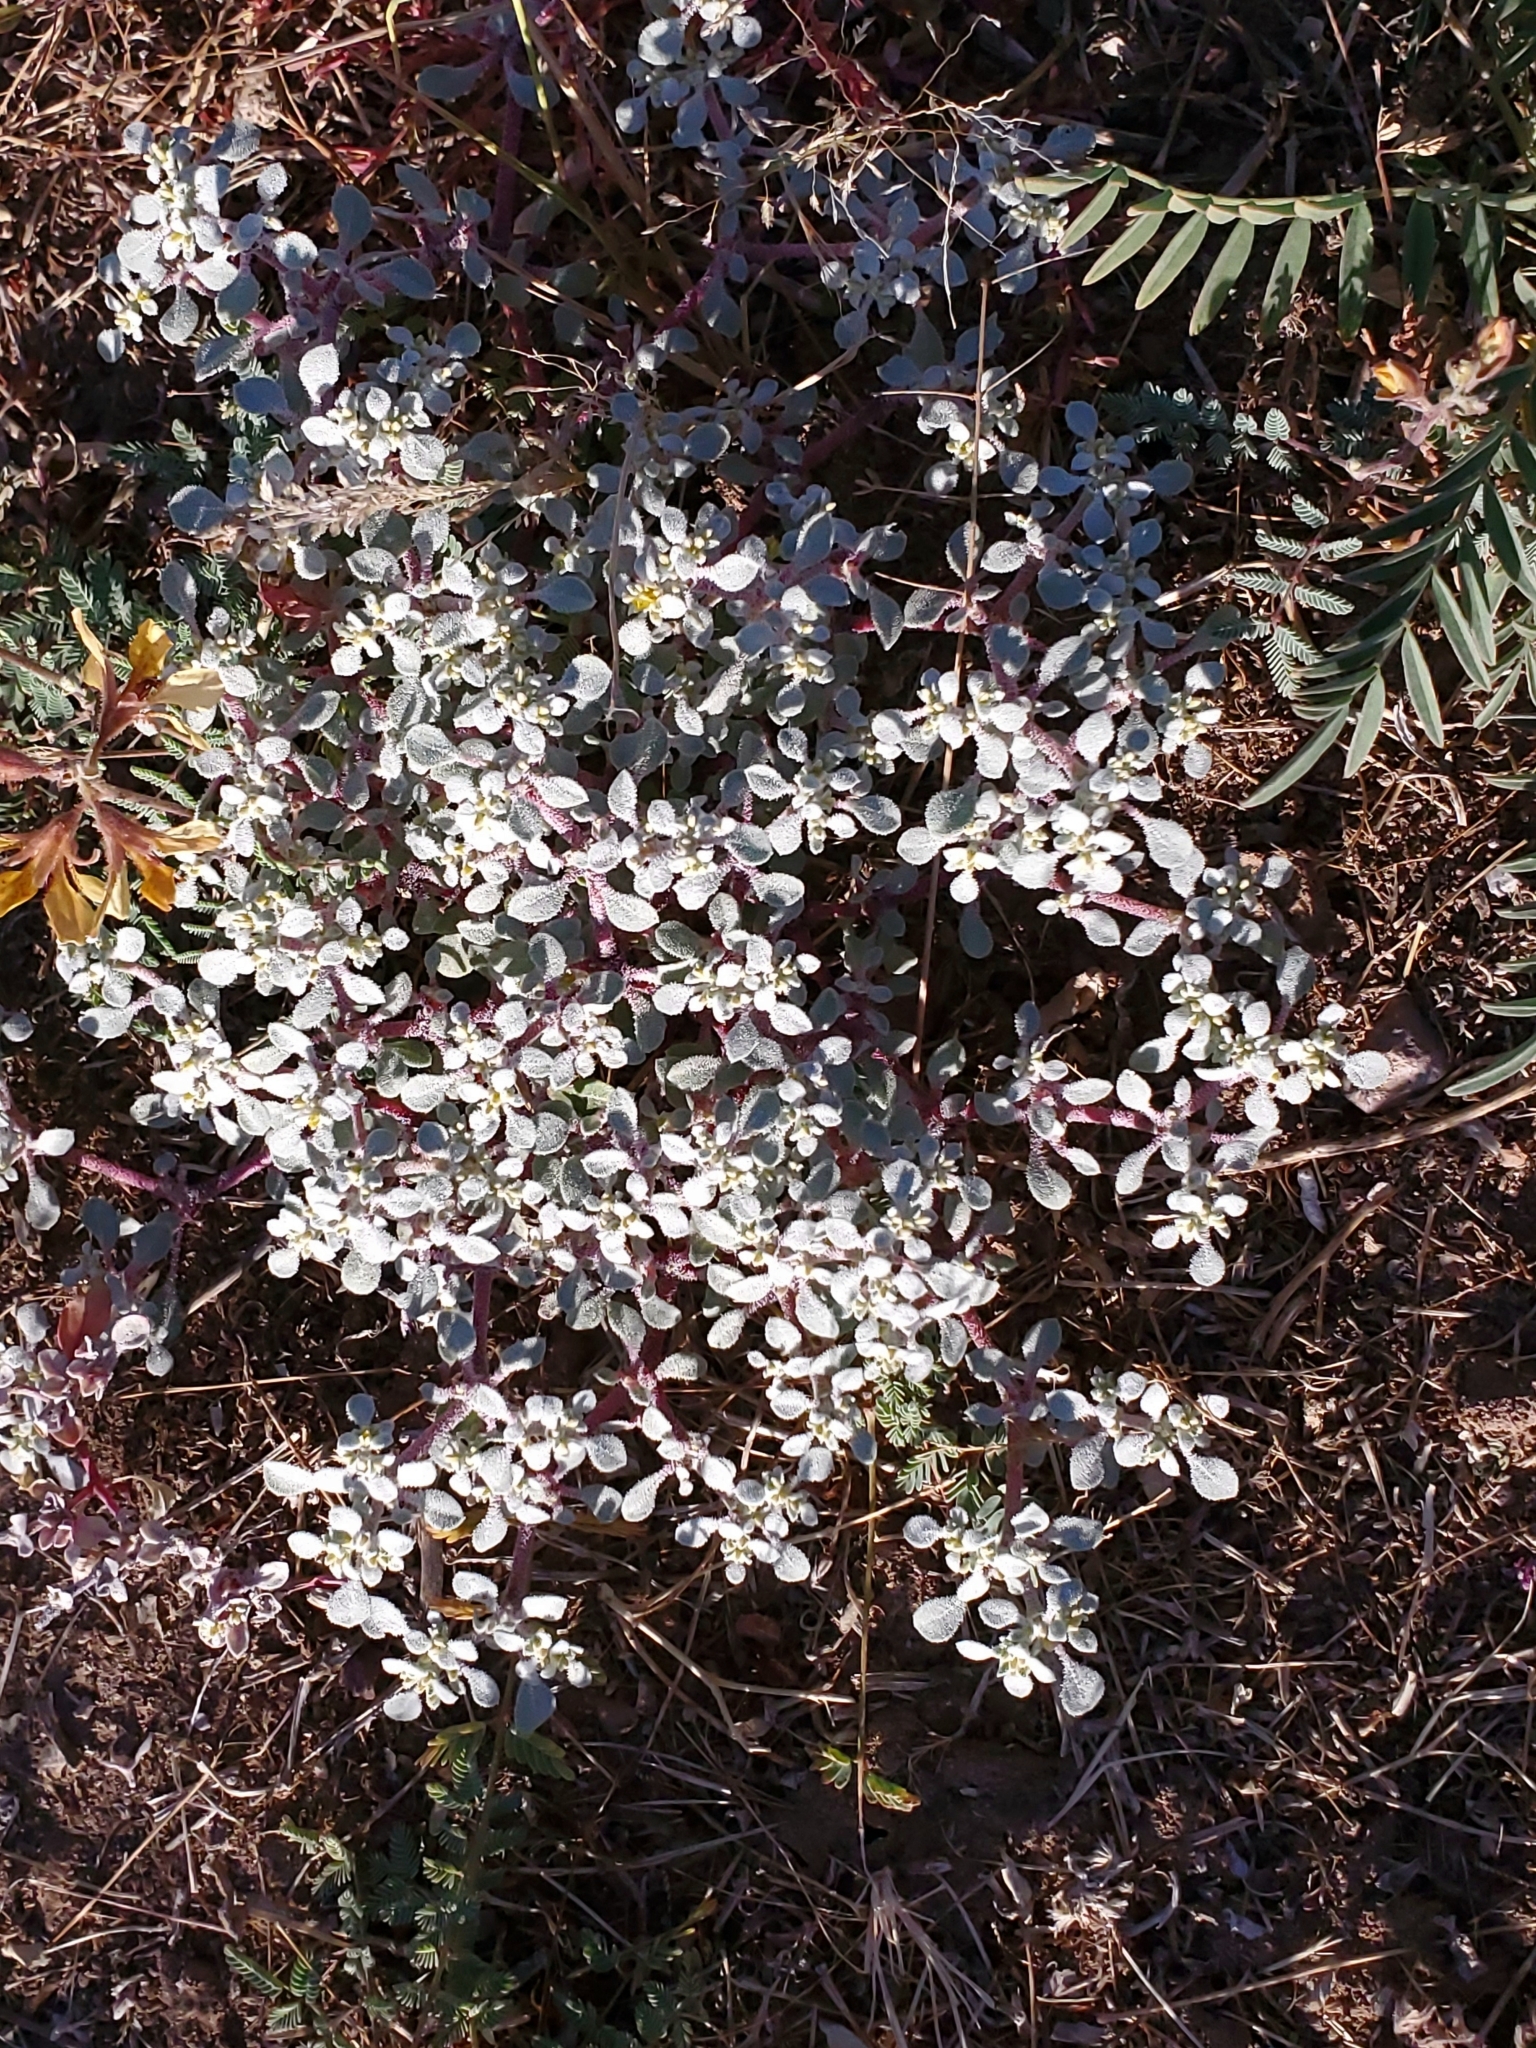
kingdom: Plantae
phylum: Tracheophyta
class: Magnoliopsida
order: Caryophyllales
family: Amaranthaceae
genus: Tidestromia
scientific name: Tidestromia lanuginosa
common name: Woolly tidestromia
